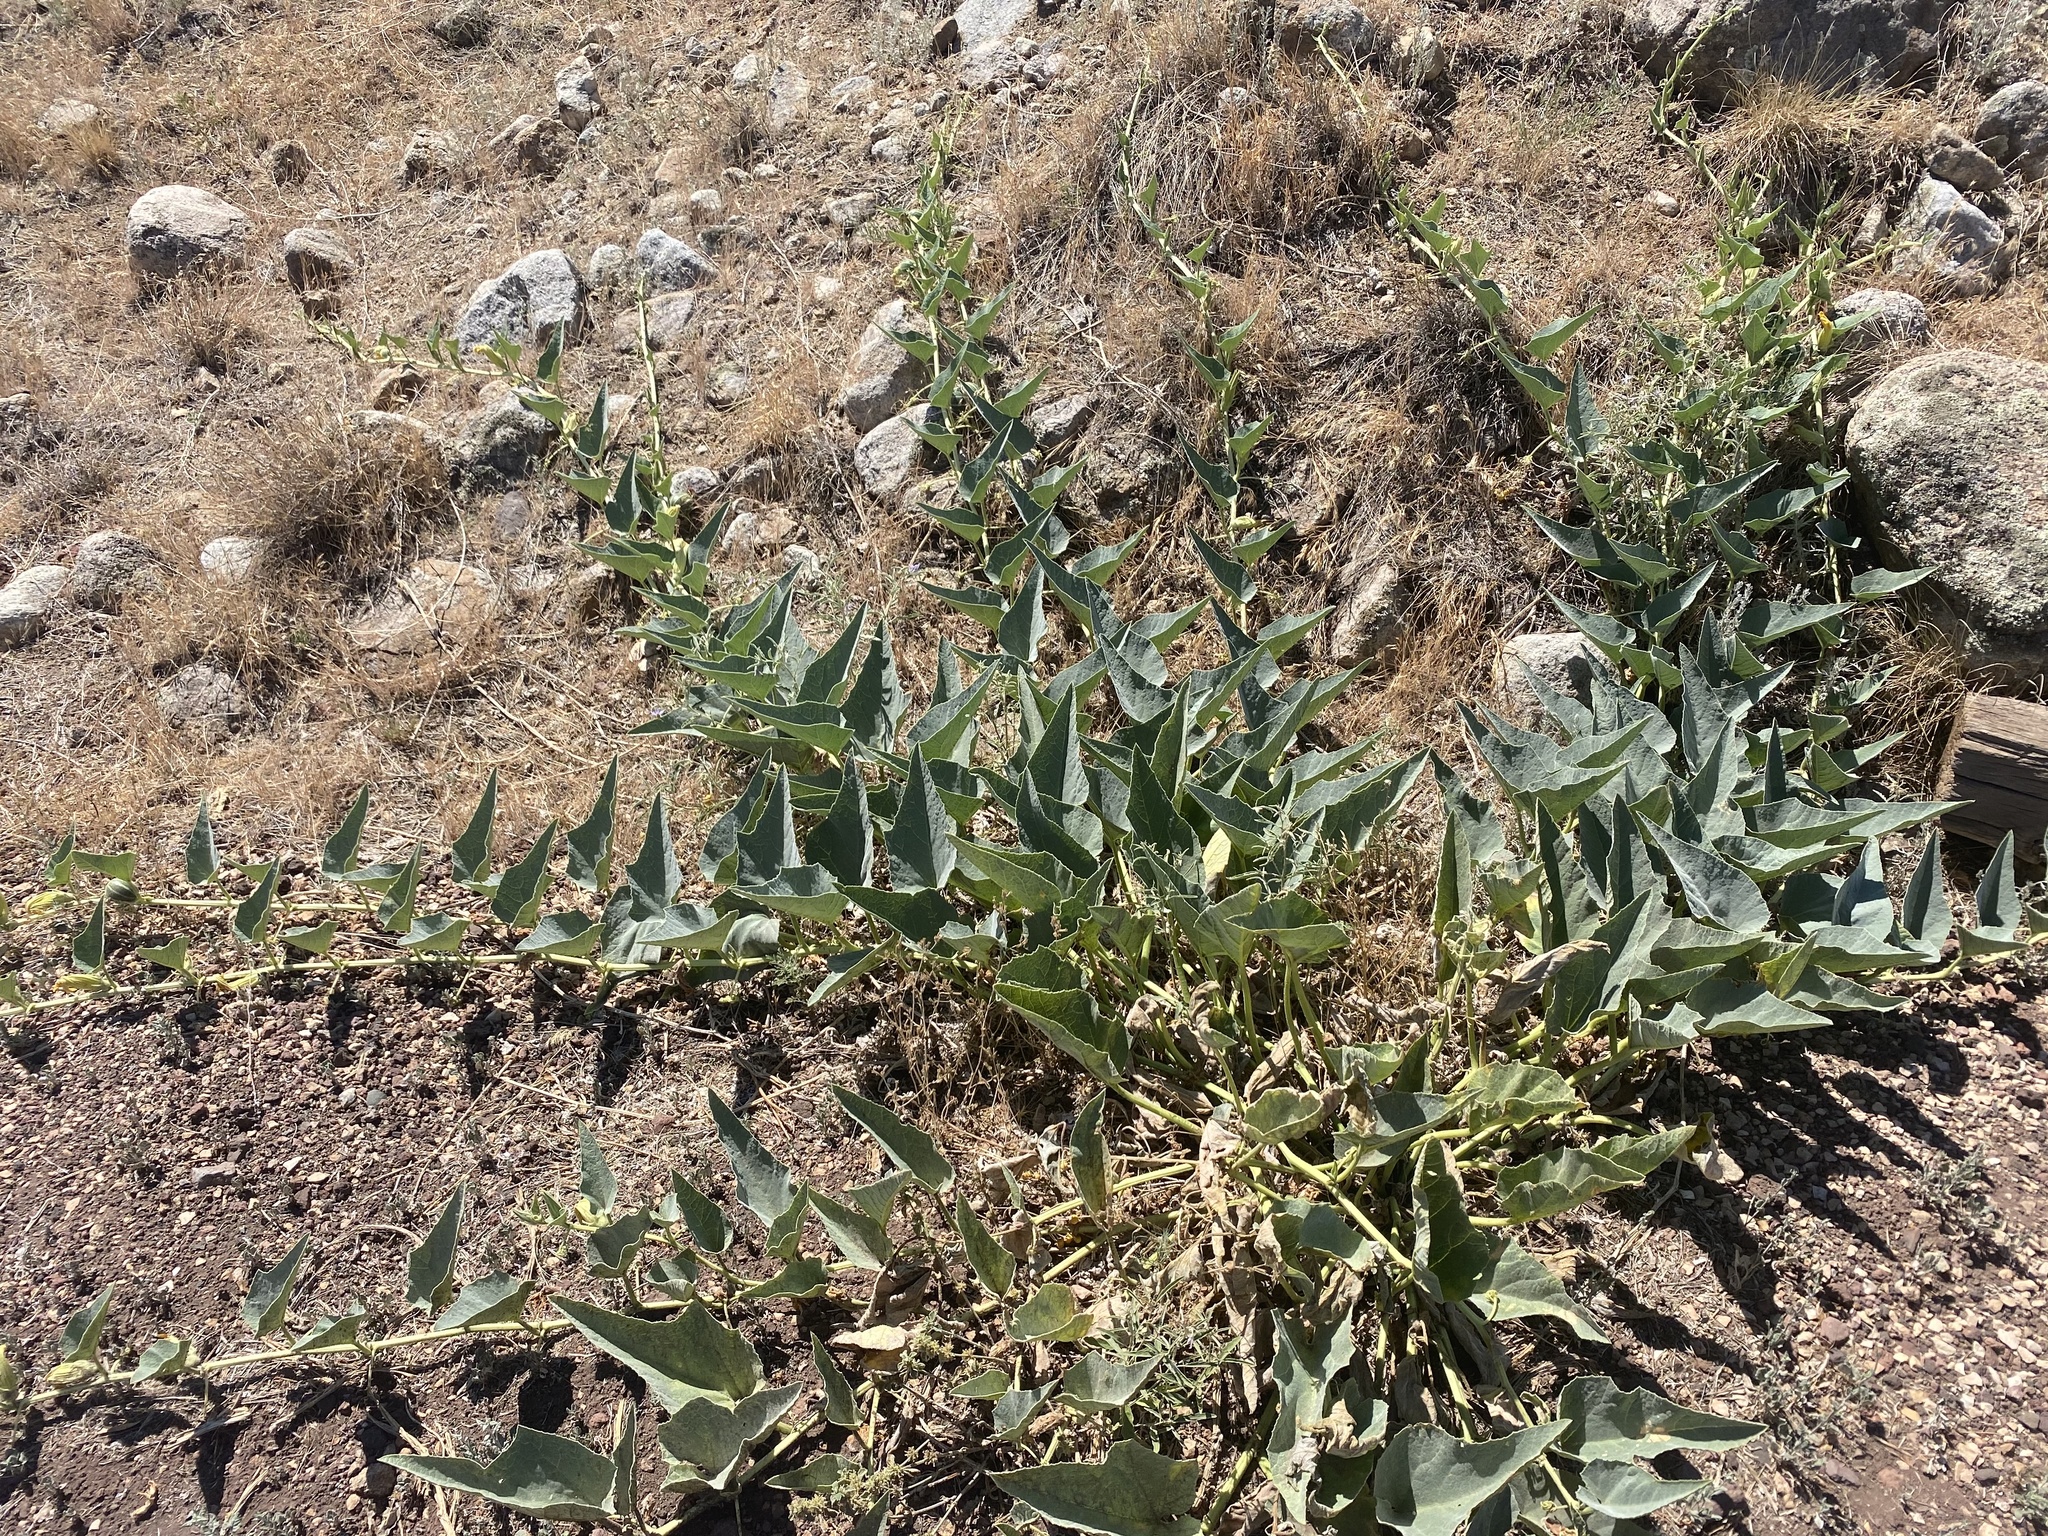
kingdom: Plantae
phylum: Tracheophyta
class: Magnoliopsida
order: Cucurbitales
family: Cucurbitaceae
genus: Cucurbita
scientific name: Cucurbita foetidissima
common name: Buffalo gourd
